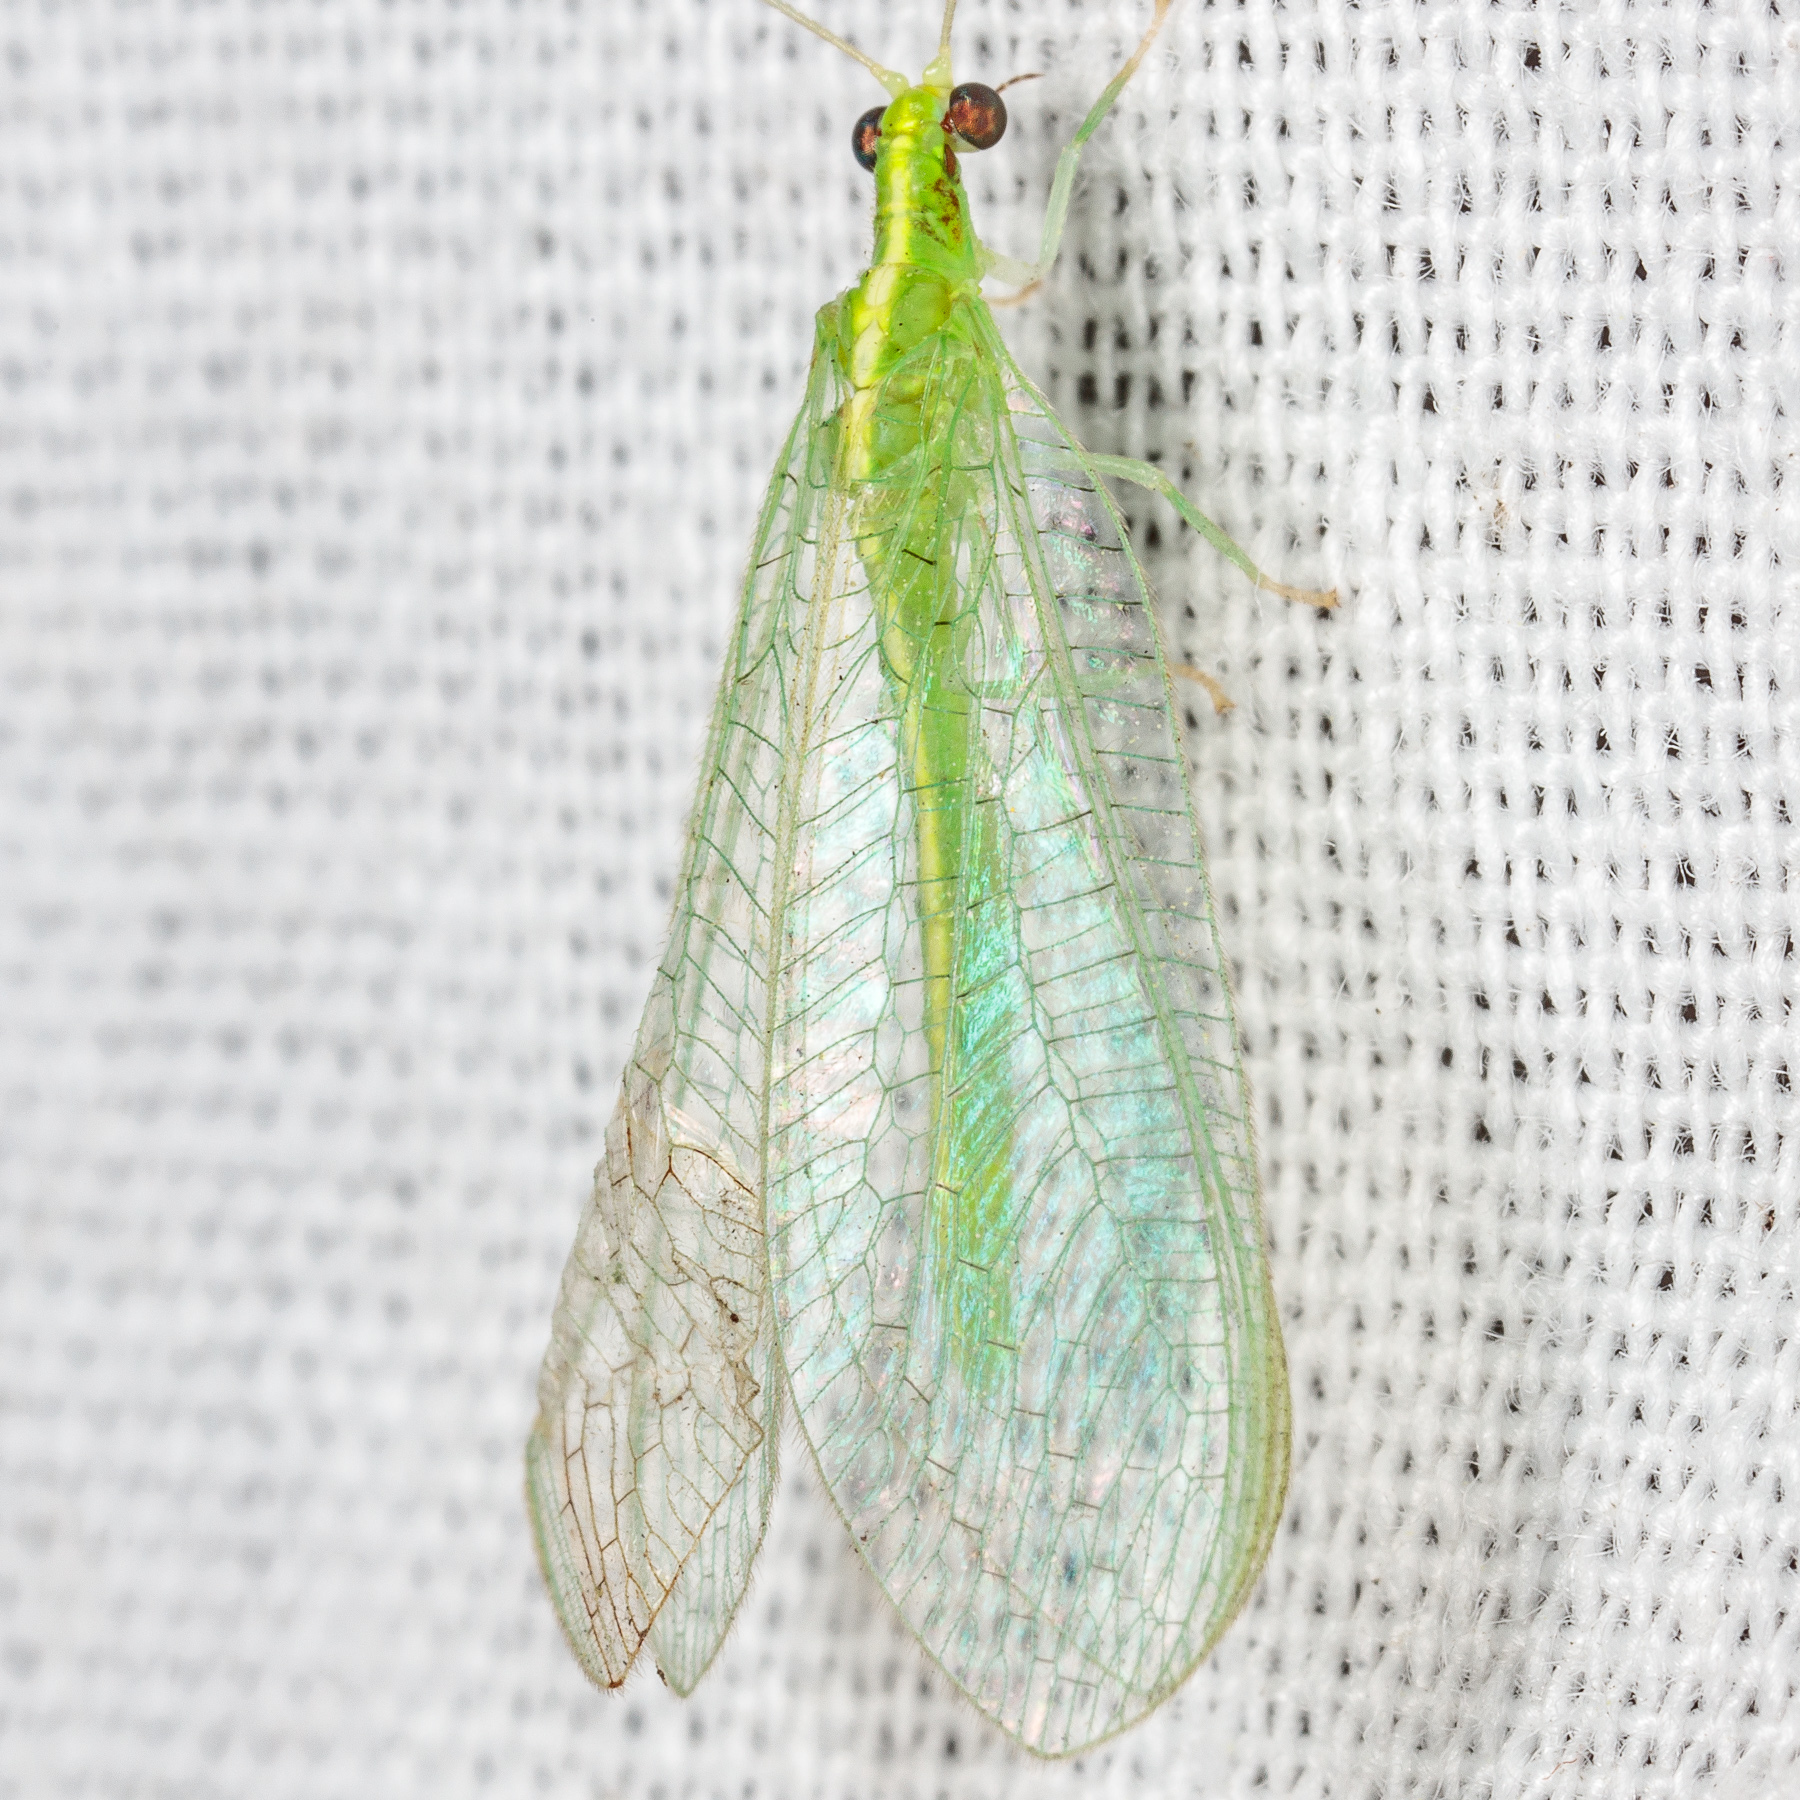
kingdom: Animalia
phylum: Arthropoda
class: Insecta
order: Neuroptera
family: Chrysopidae
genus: Chrysoperla
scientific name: Chrysoperla rufilabris
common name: Red-lipped green lacewing
